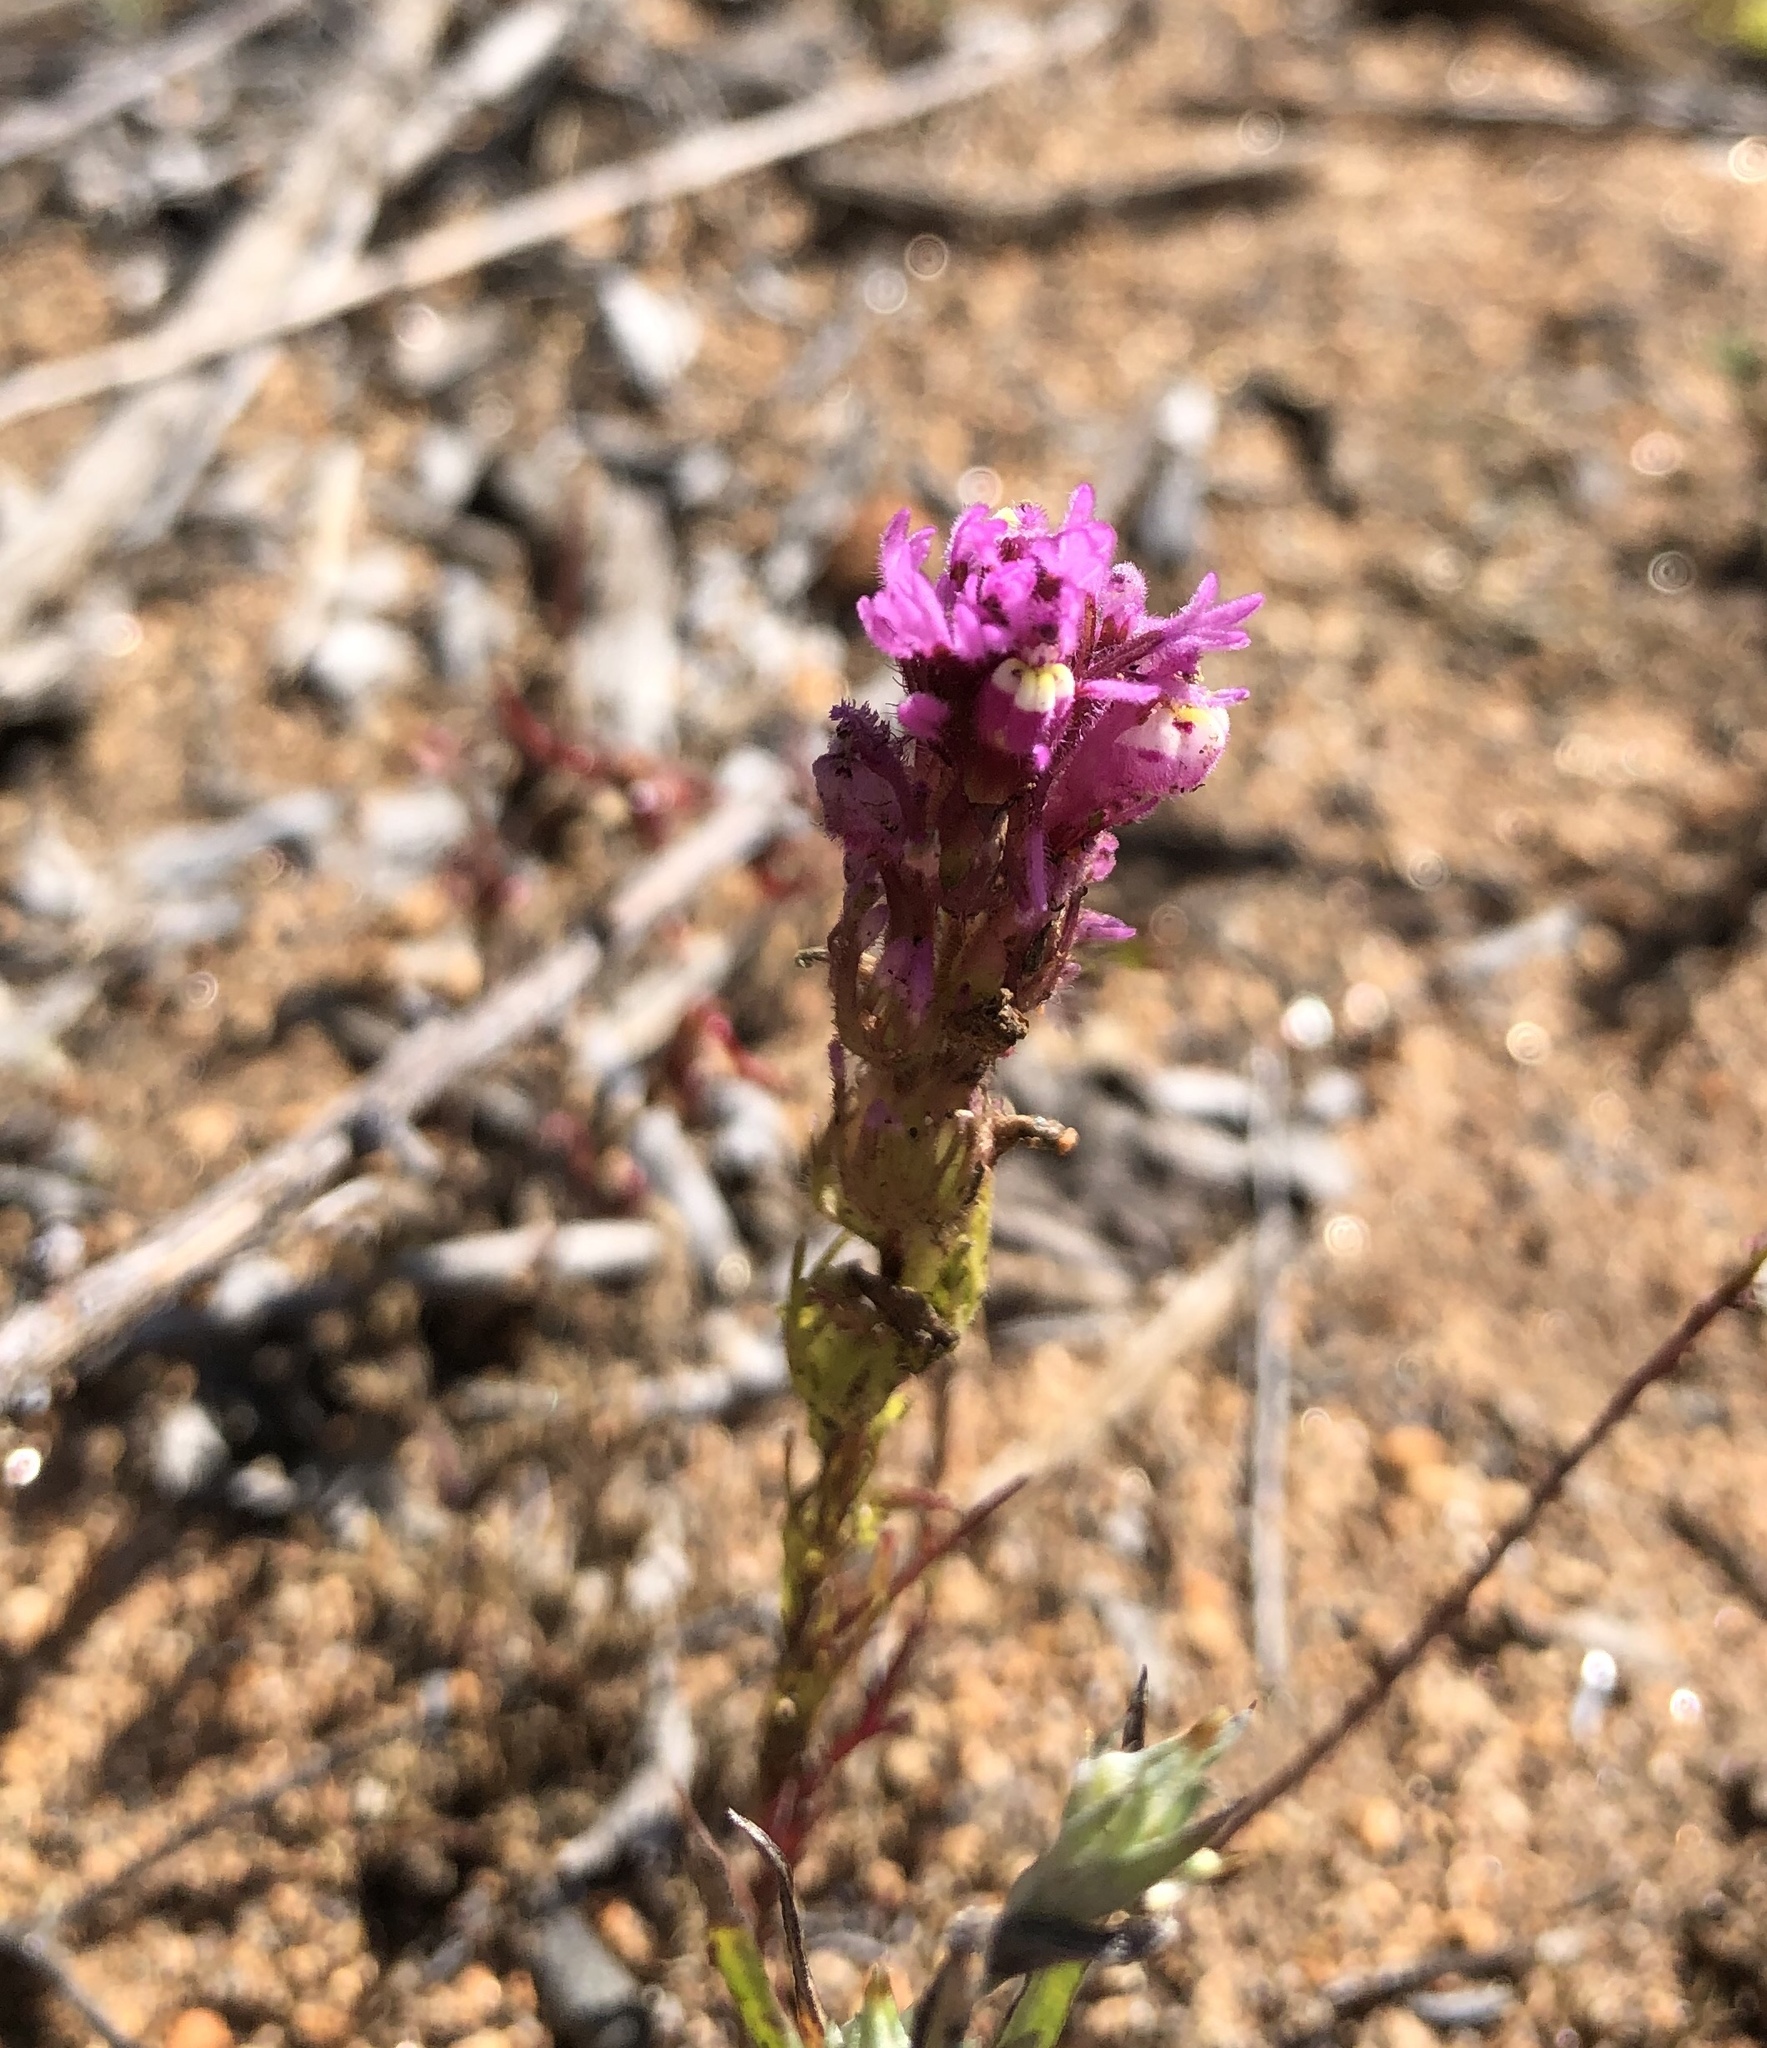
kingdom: Plantae
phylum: Tracheophyta
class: Magnoliopsida
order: Lamiales
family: Orobanchaceae
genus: Castilleja
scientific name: Castilleja exserta
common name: Purple owl-clover
